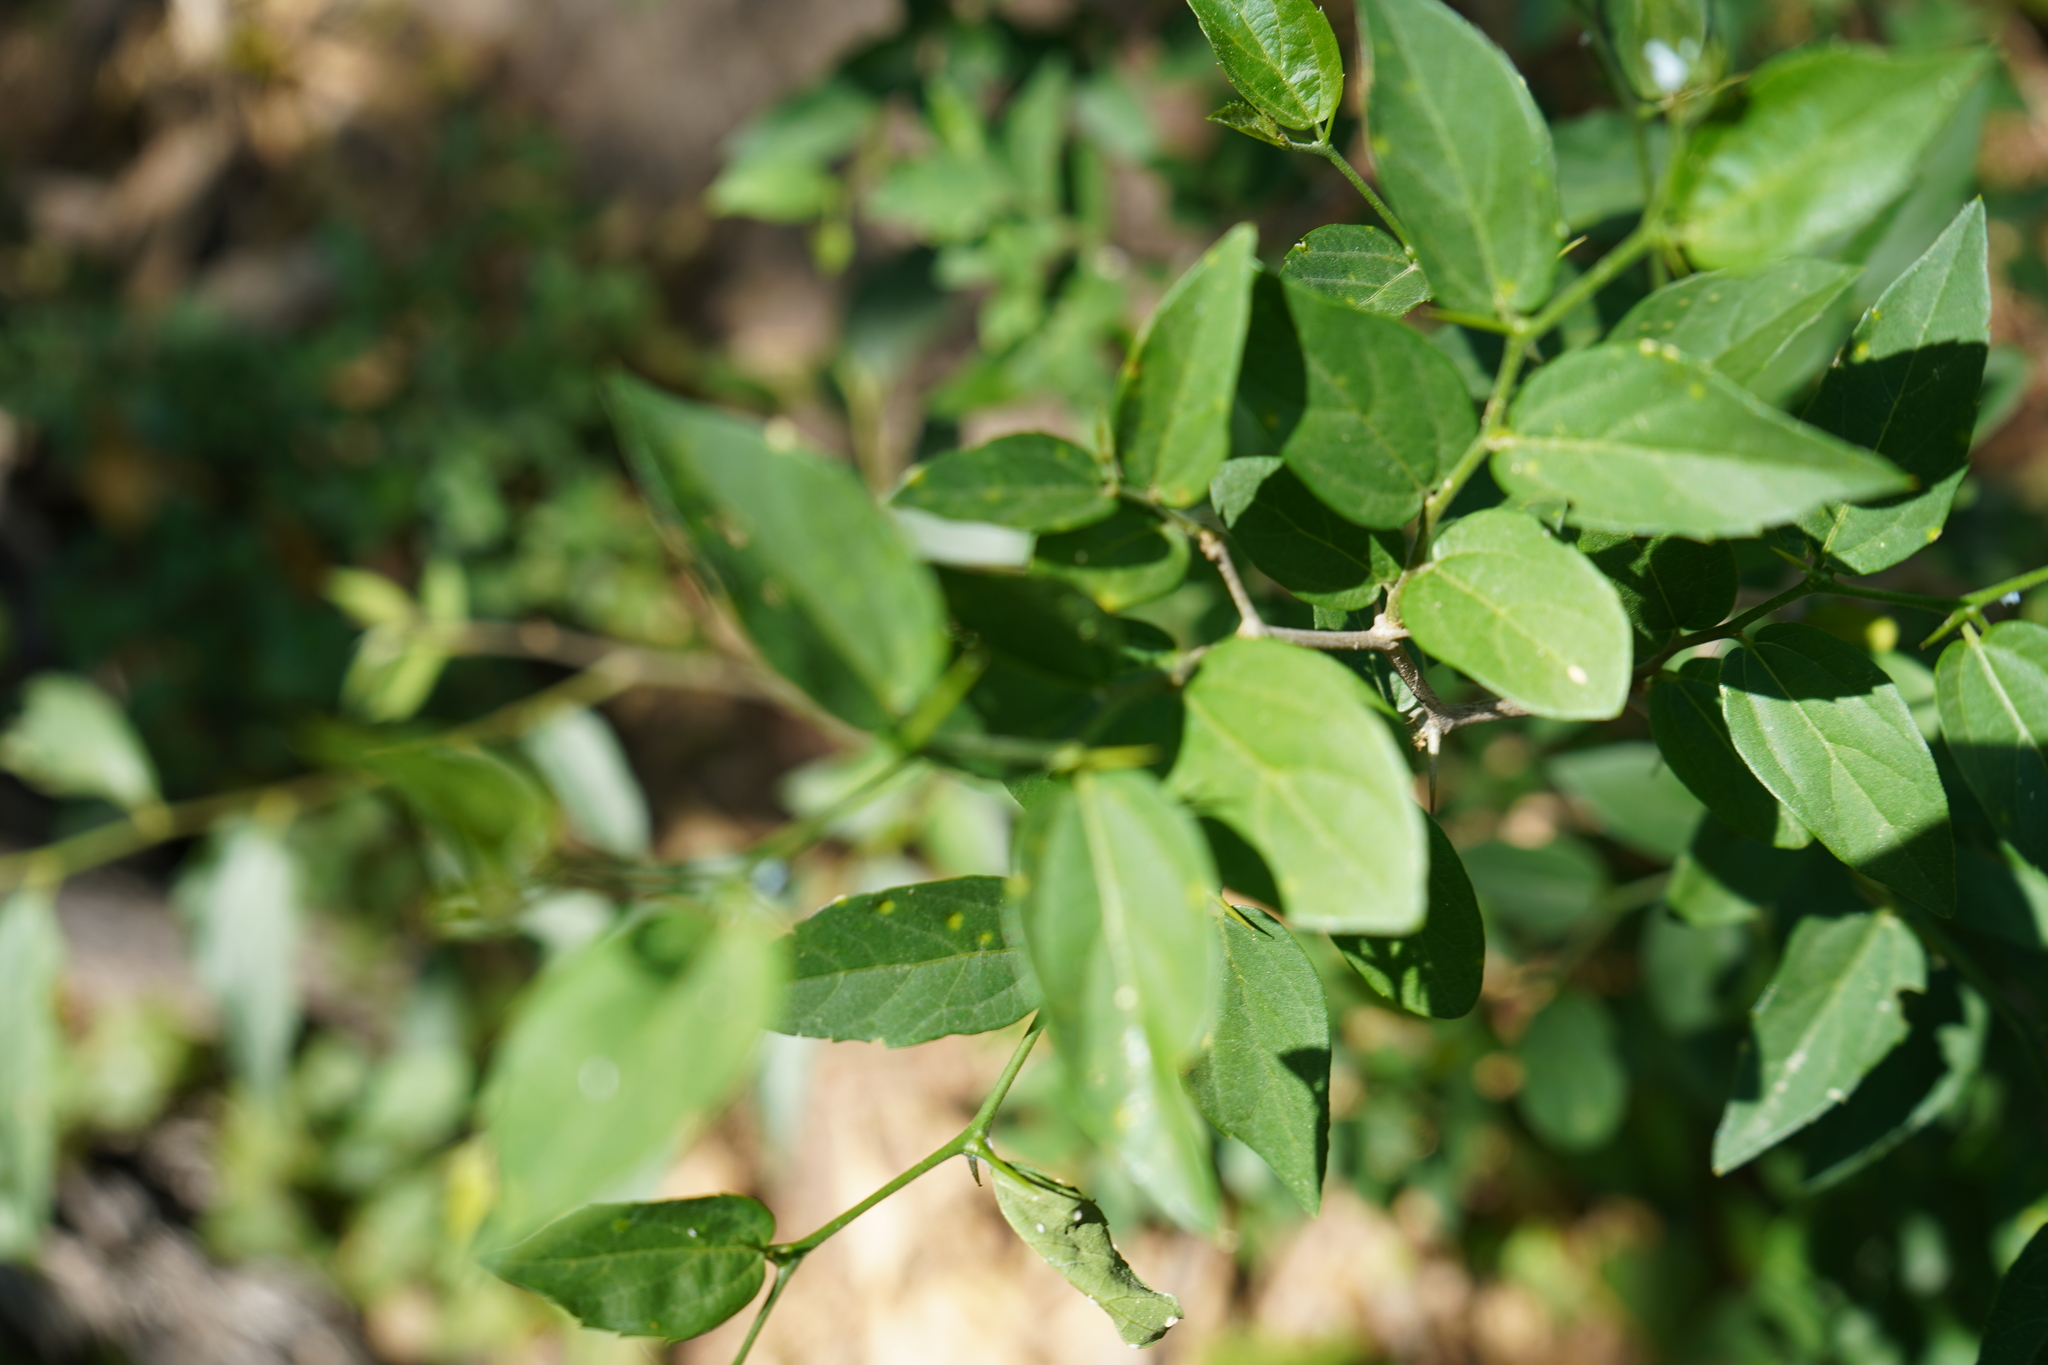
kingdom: Plantae
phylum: Tracheophyta
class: Magnoliopsida
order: Rosales
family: Cannabaceae
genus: Celtis
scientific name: Celtis tala
